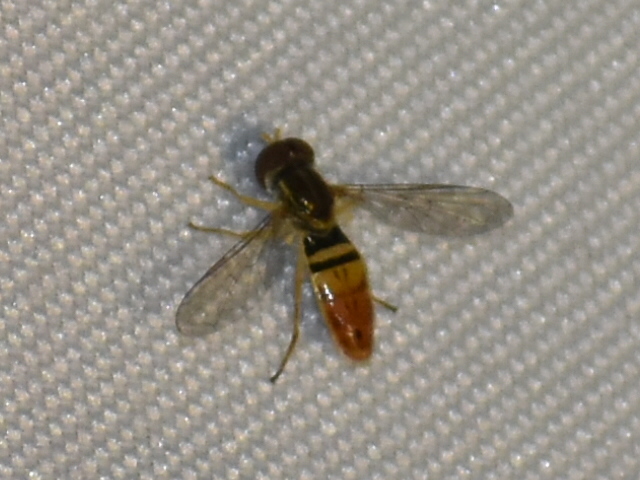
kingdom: Animalia
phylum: Arthropoda
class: Insecta
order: Diptera
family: Syrphidae
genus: Toxomerus
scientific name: Toxomerus marginatus
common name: Syrphid fly
